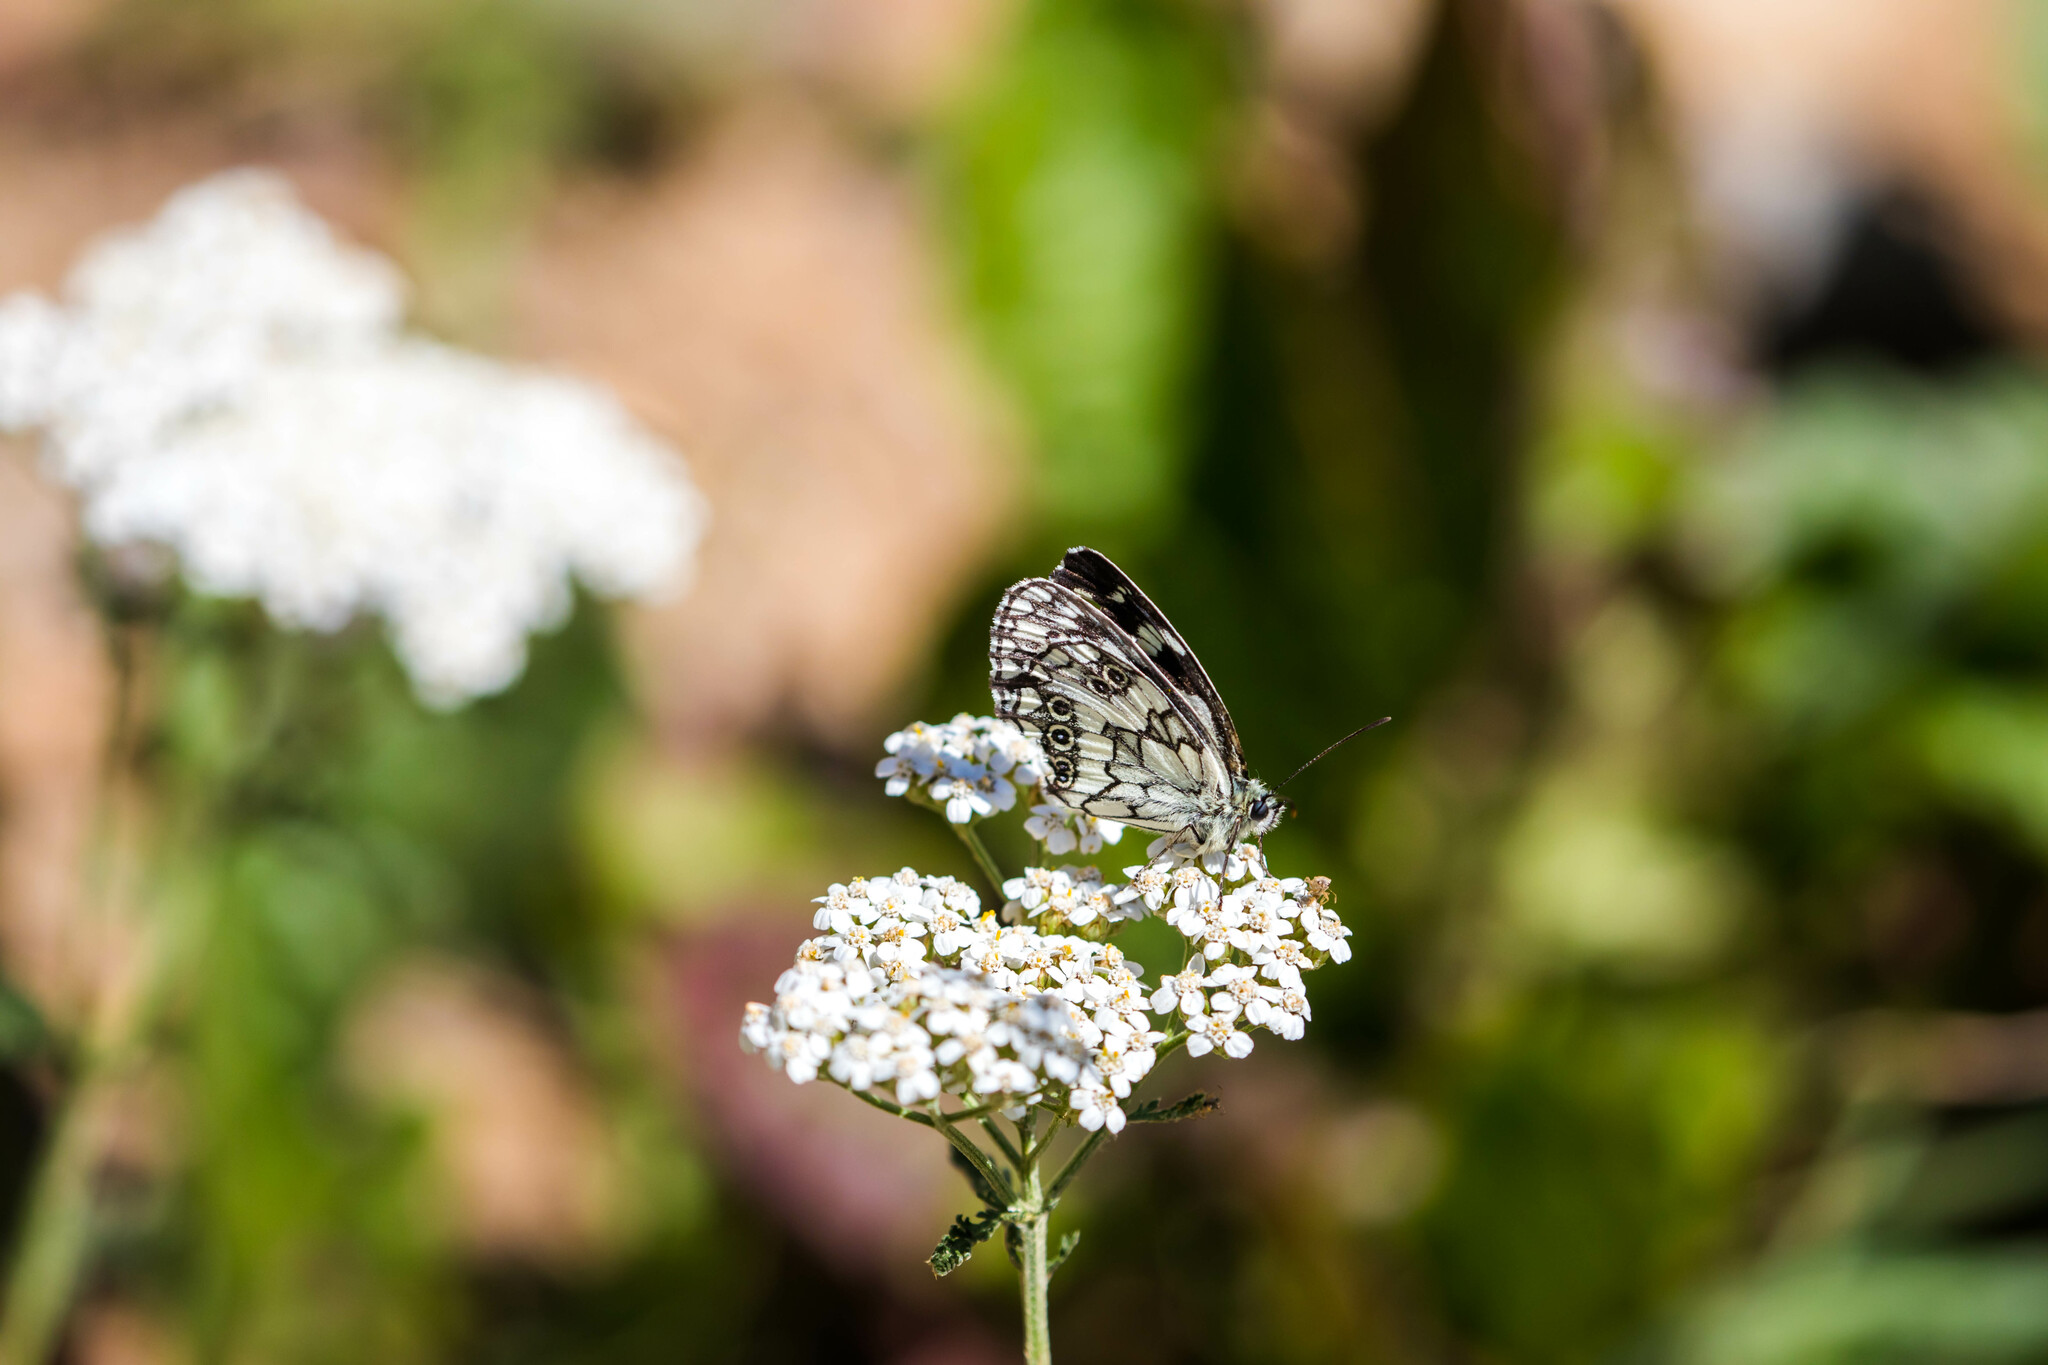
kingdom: Animalia
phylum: Arthropoda
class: Insecta
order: Lepidoptera
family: Nymphalidae
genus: Melanargia
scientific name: Melanargia galathea
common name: Marbled white
